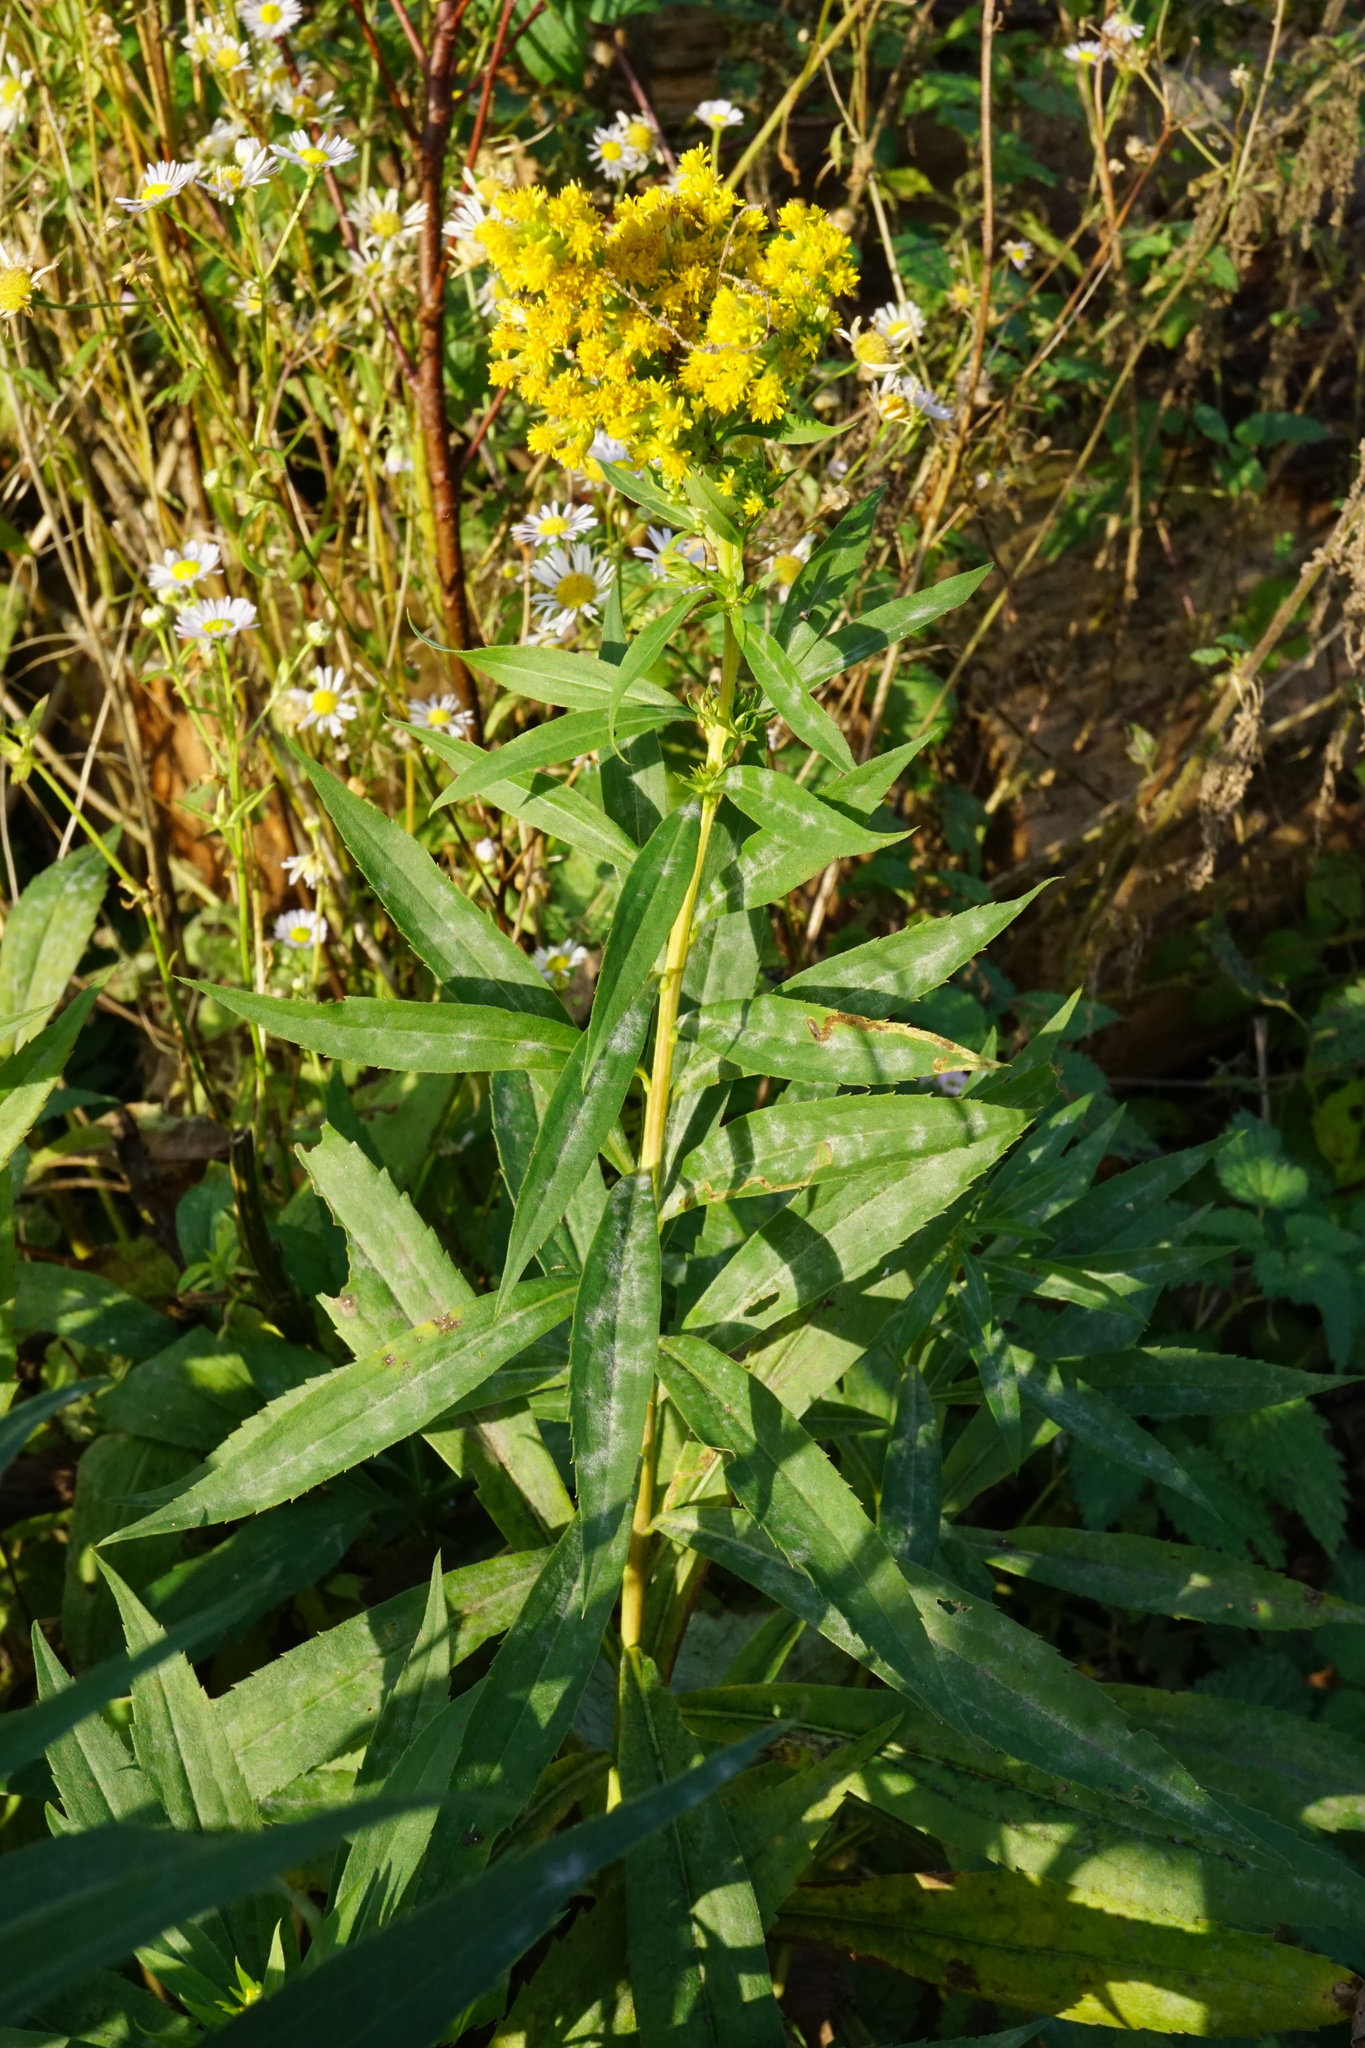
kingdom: Plantae
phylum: Tracheophyta
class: Magnoliopsida
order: Asterales
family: Asteraceae
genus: Solidago
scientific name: Solidago gigantea
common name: Giant goldenrod
